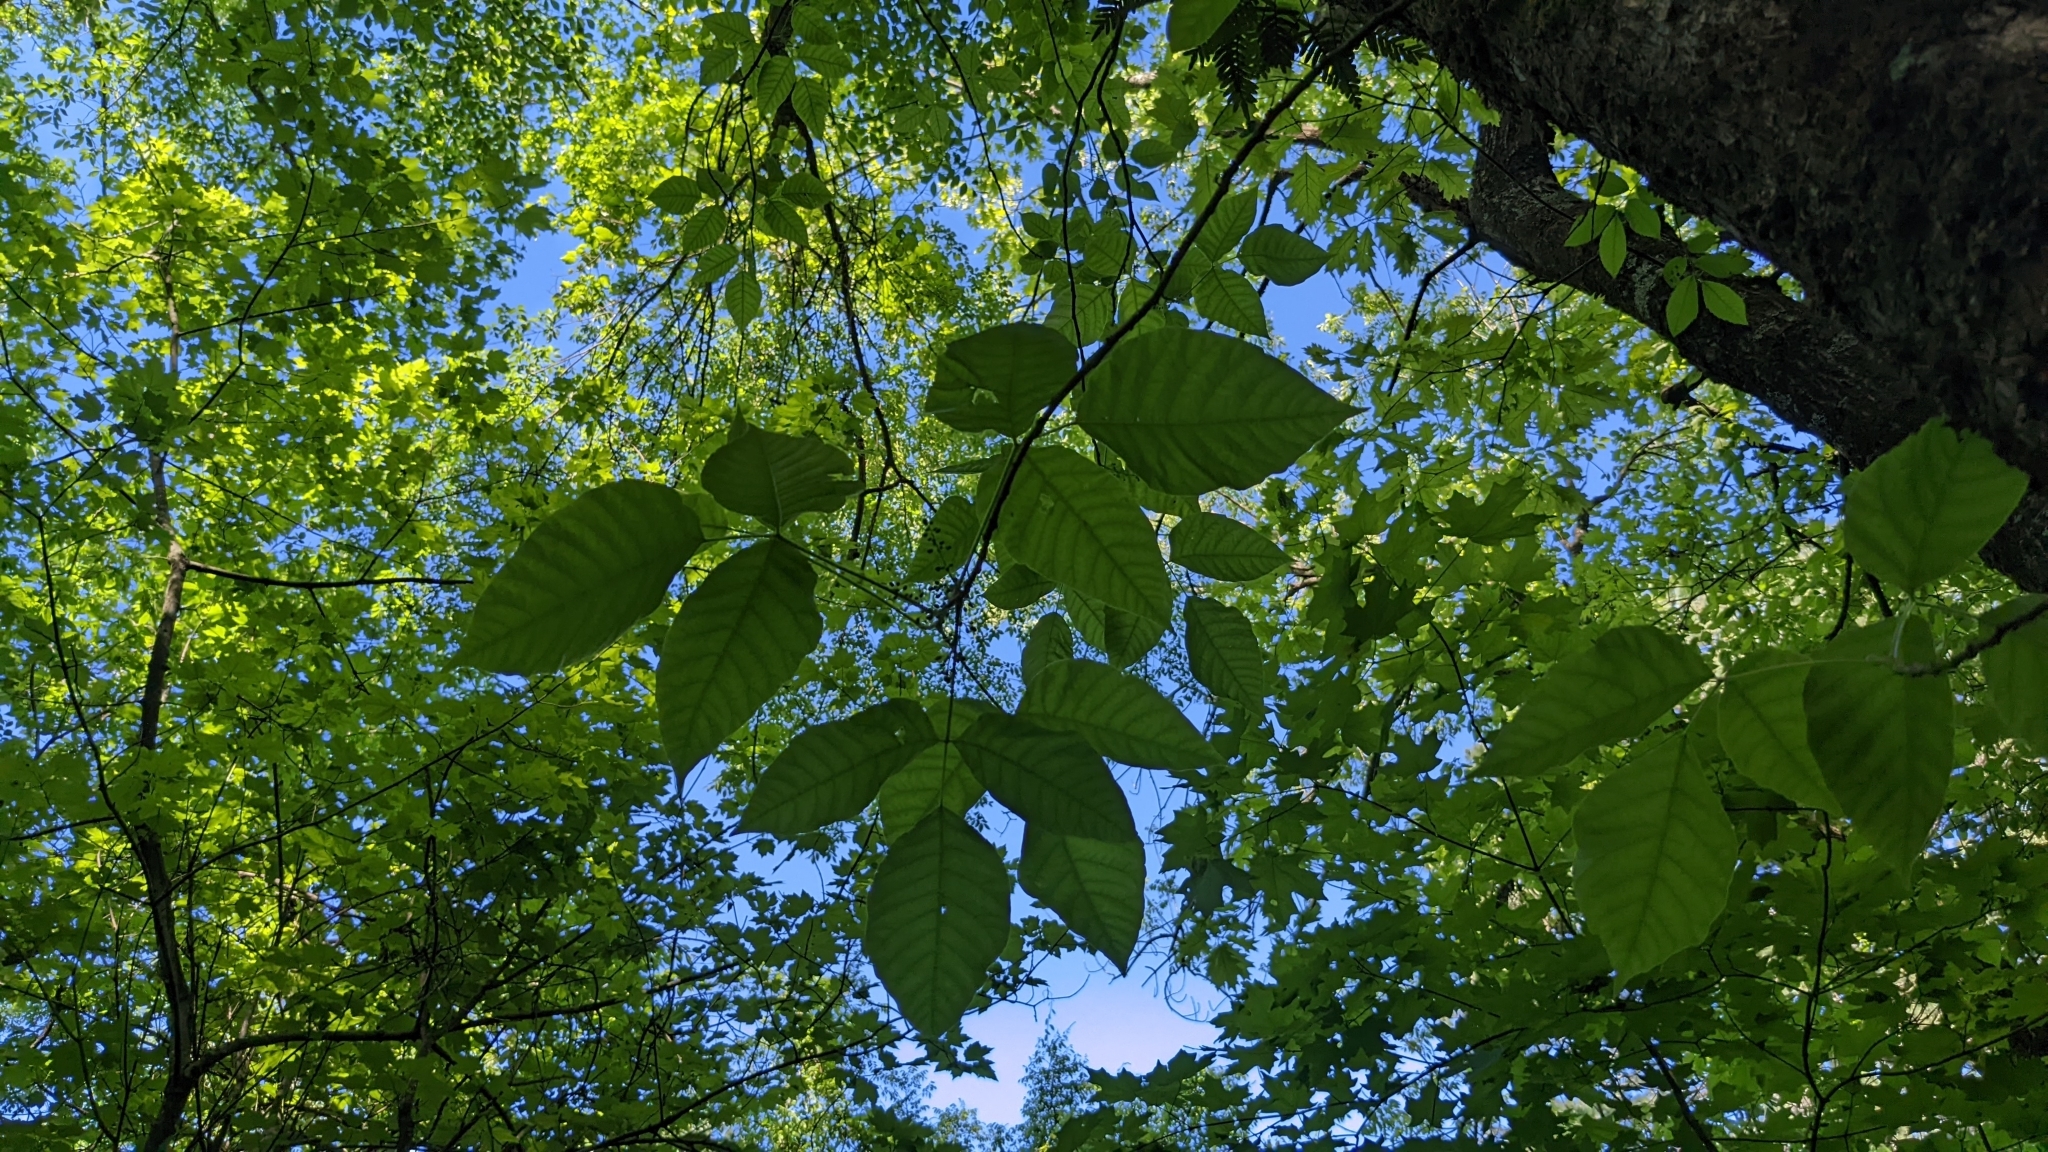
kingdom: Plantae
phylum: Tracheophyta
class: Magnoliopsida
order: Sapindales
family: Anacardiaceae
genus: Toxicodendron
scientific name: Toxicodendron radicans
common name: Poison ivy
